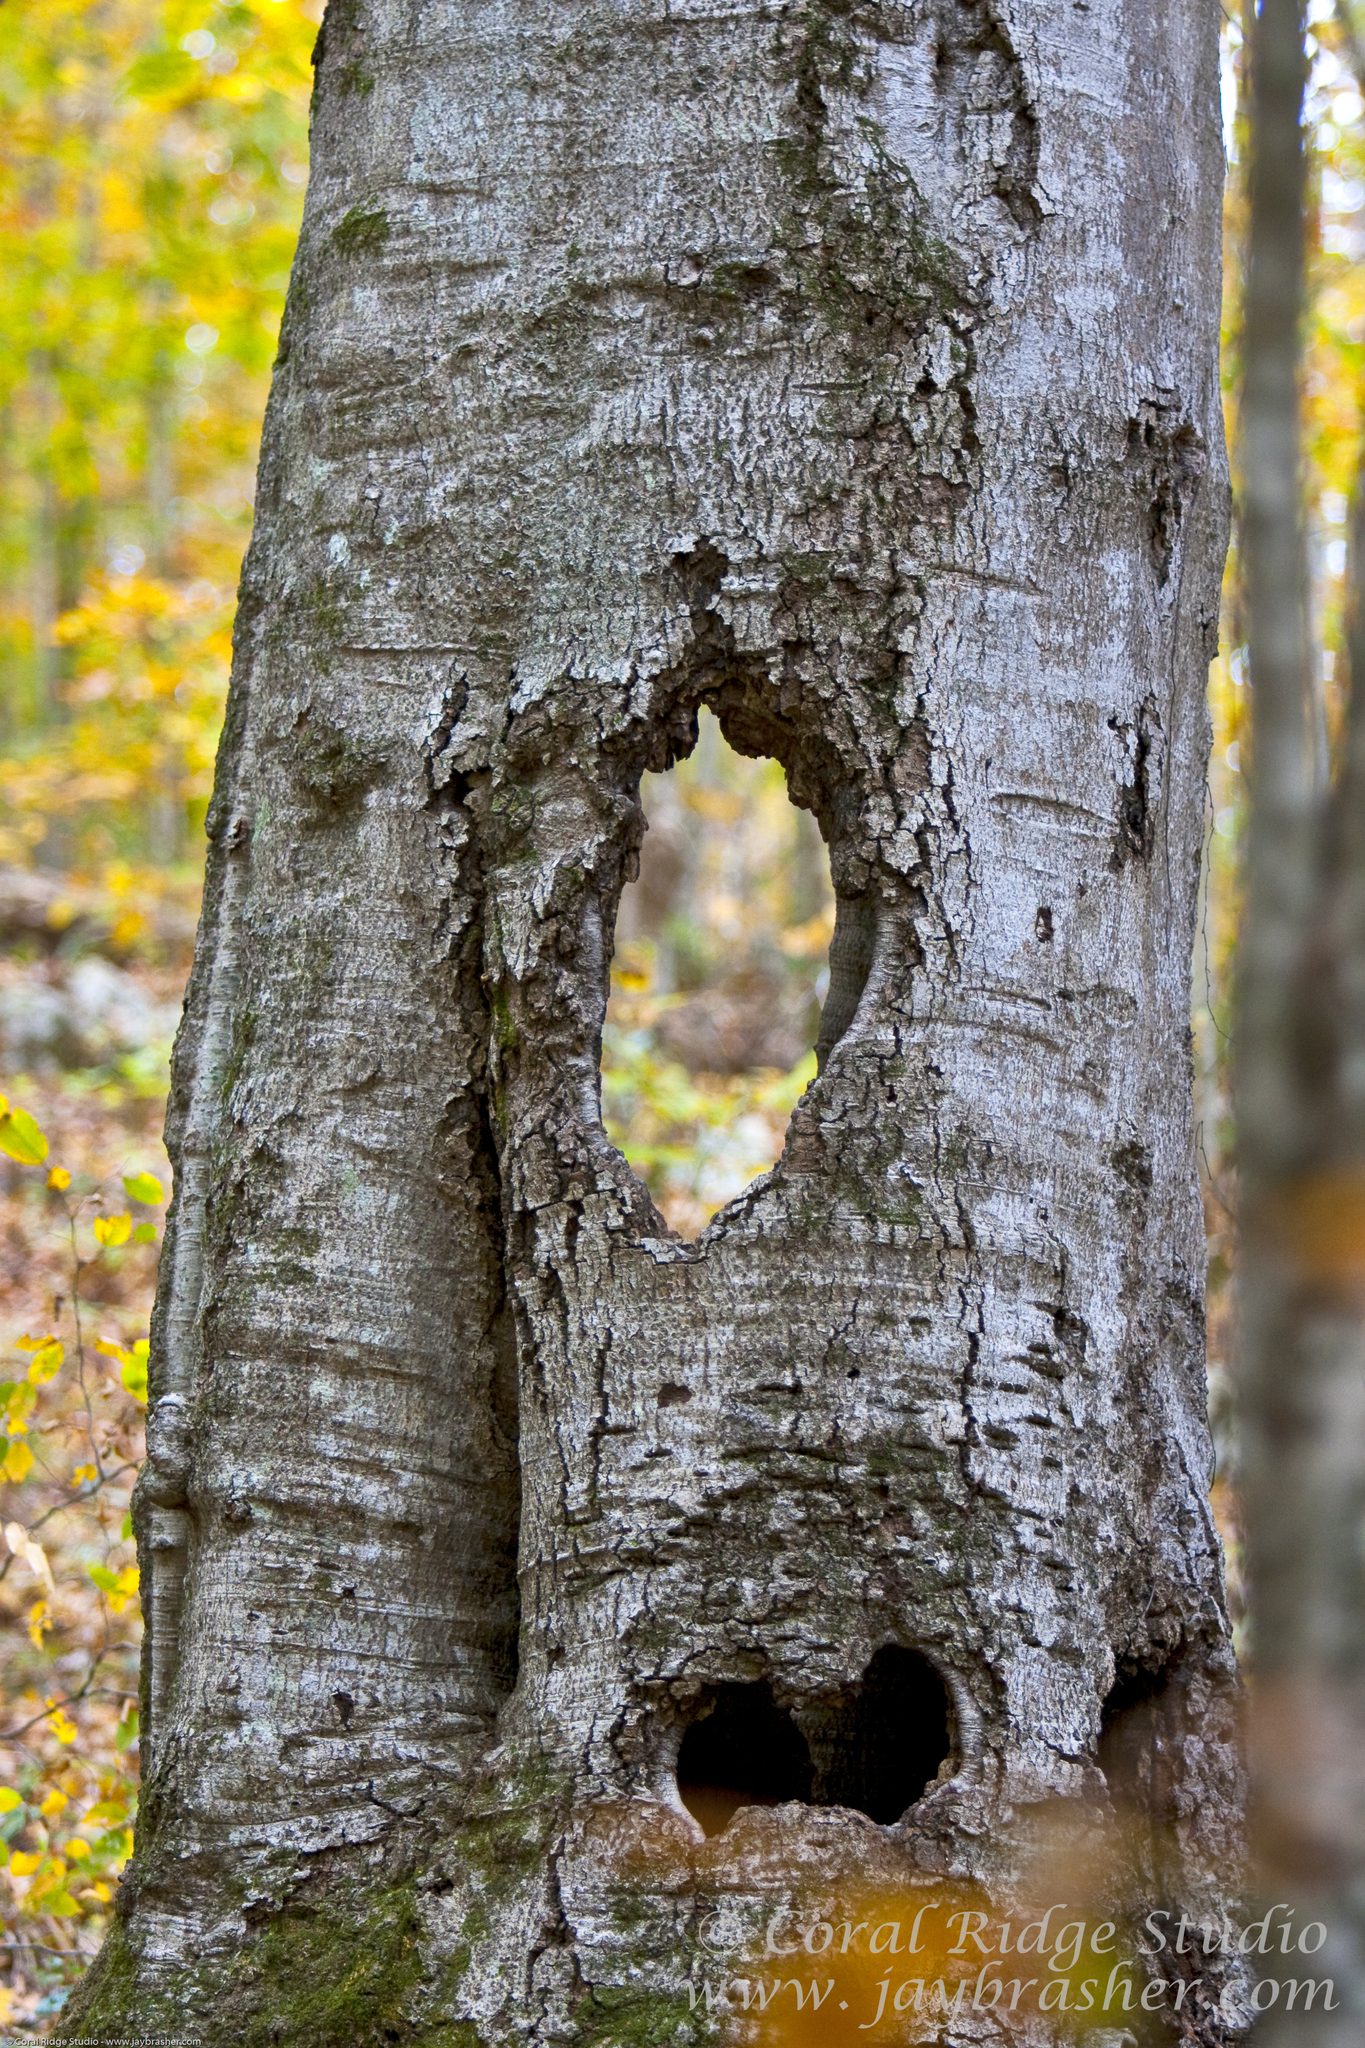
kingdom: Plantae
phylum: Tracheophyta
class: Magnoliopsida
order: Fagales
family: Fagaceae
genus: Fagus
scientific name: Fagus grandifolia
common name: American beech
